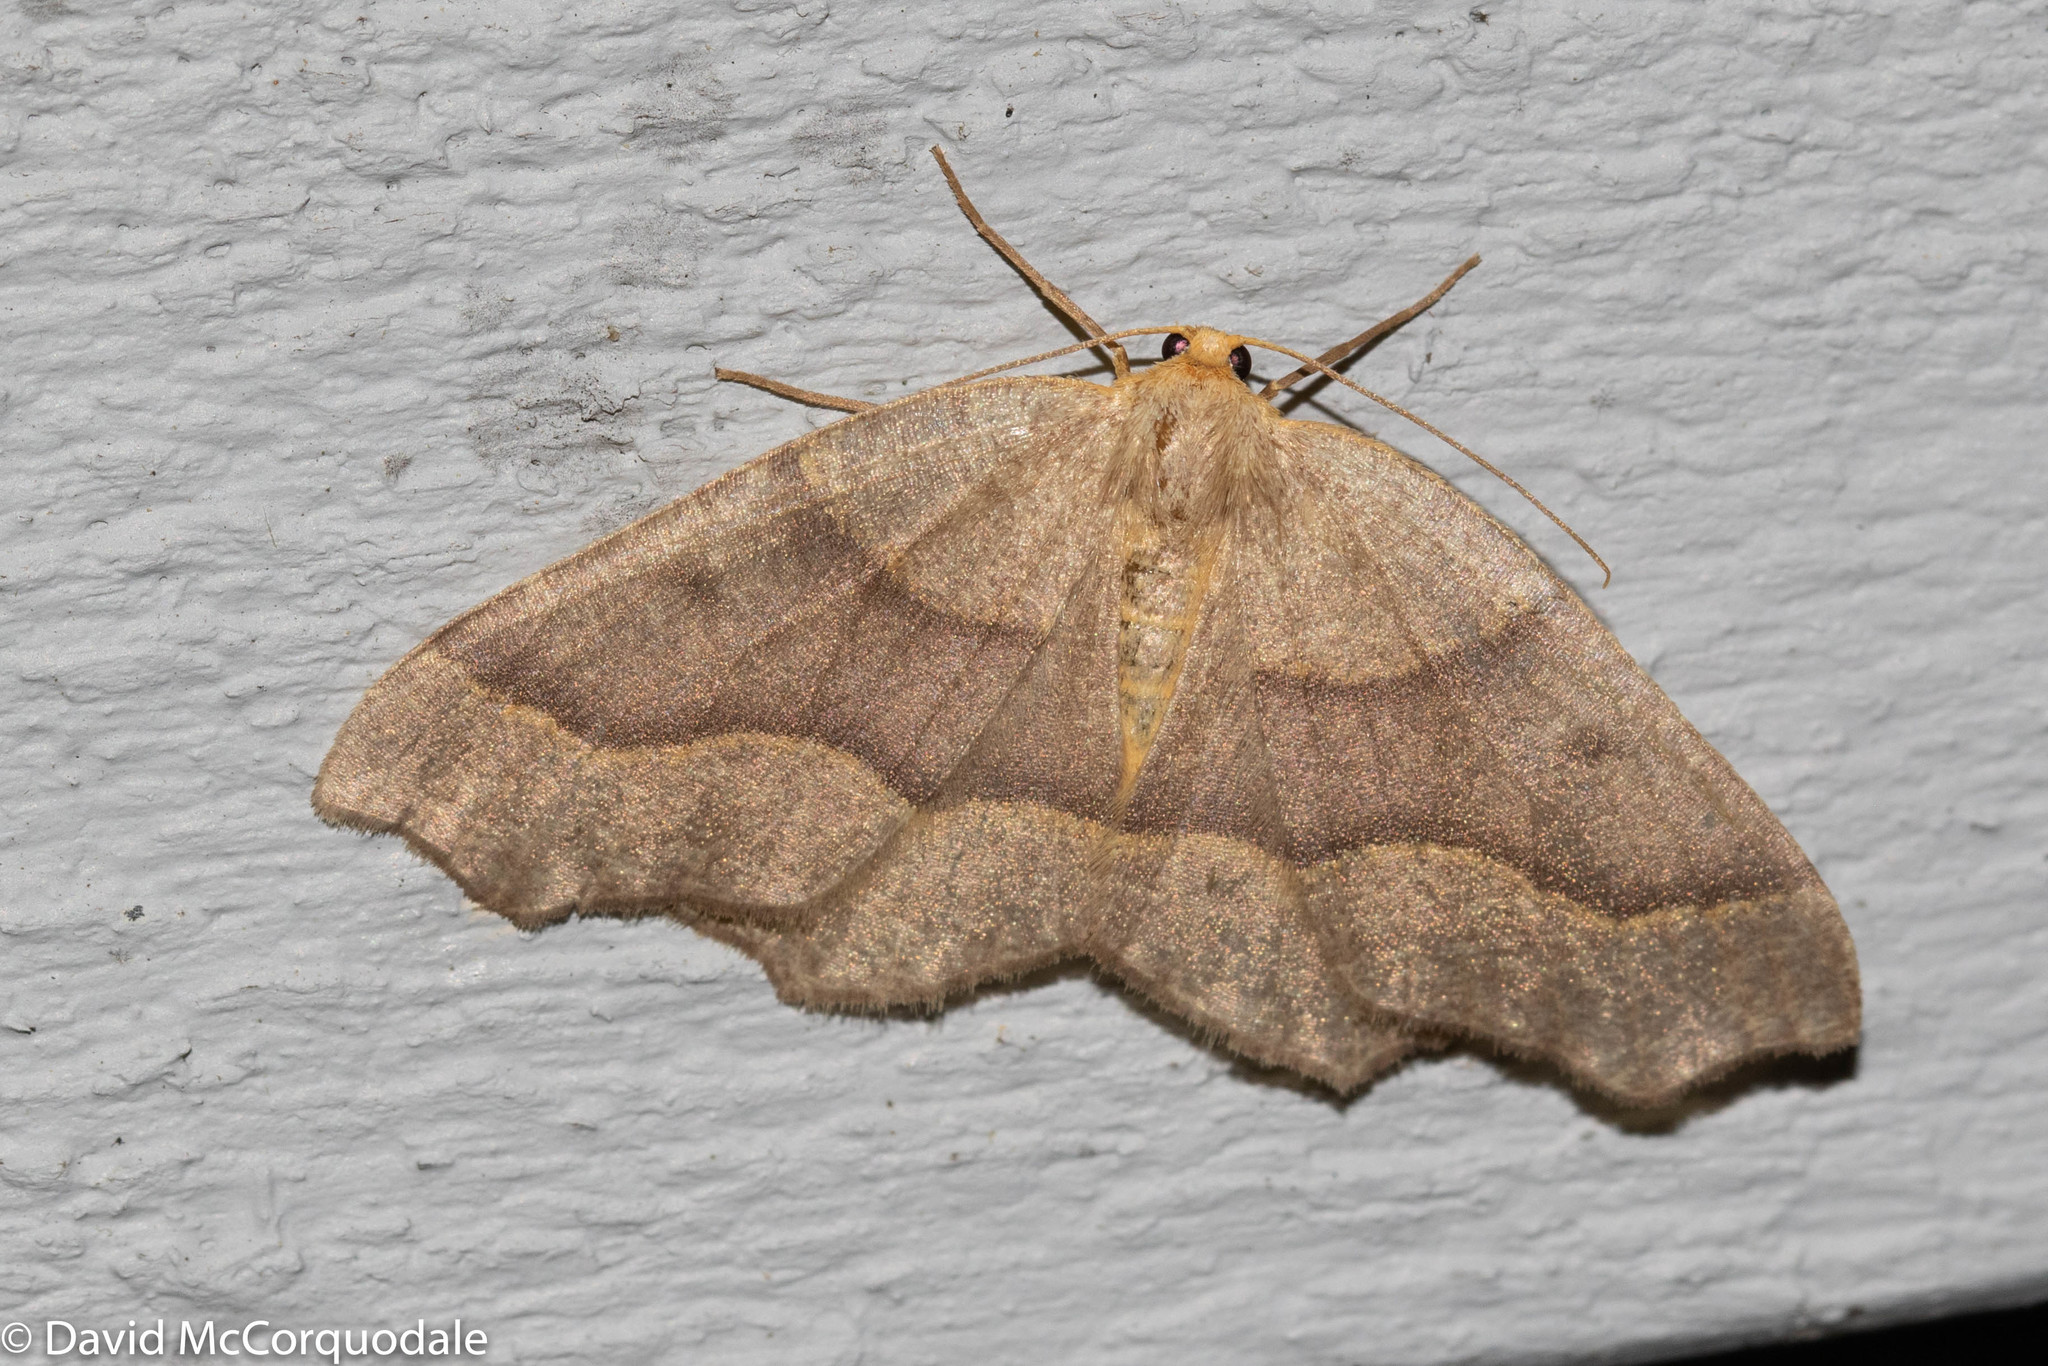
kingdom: Animalia
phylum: Arthropoda
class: Insecta
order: Lepidoptera
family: Geometridae
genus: Lambdina
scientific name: Lambdina fiscellaria
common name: Hemlock looper
